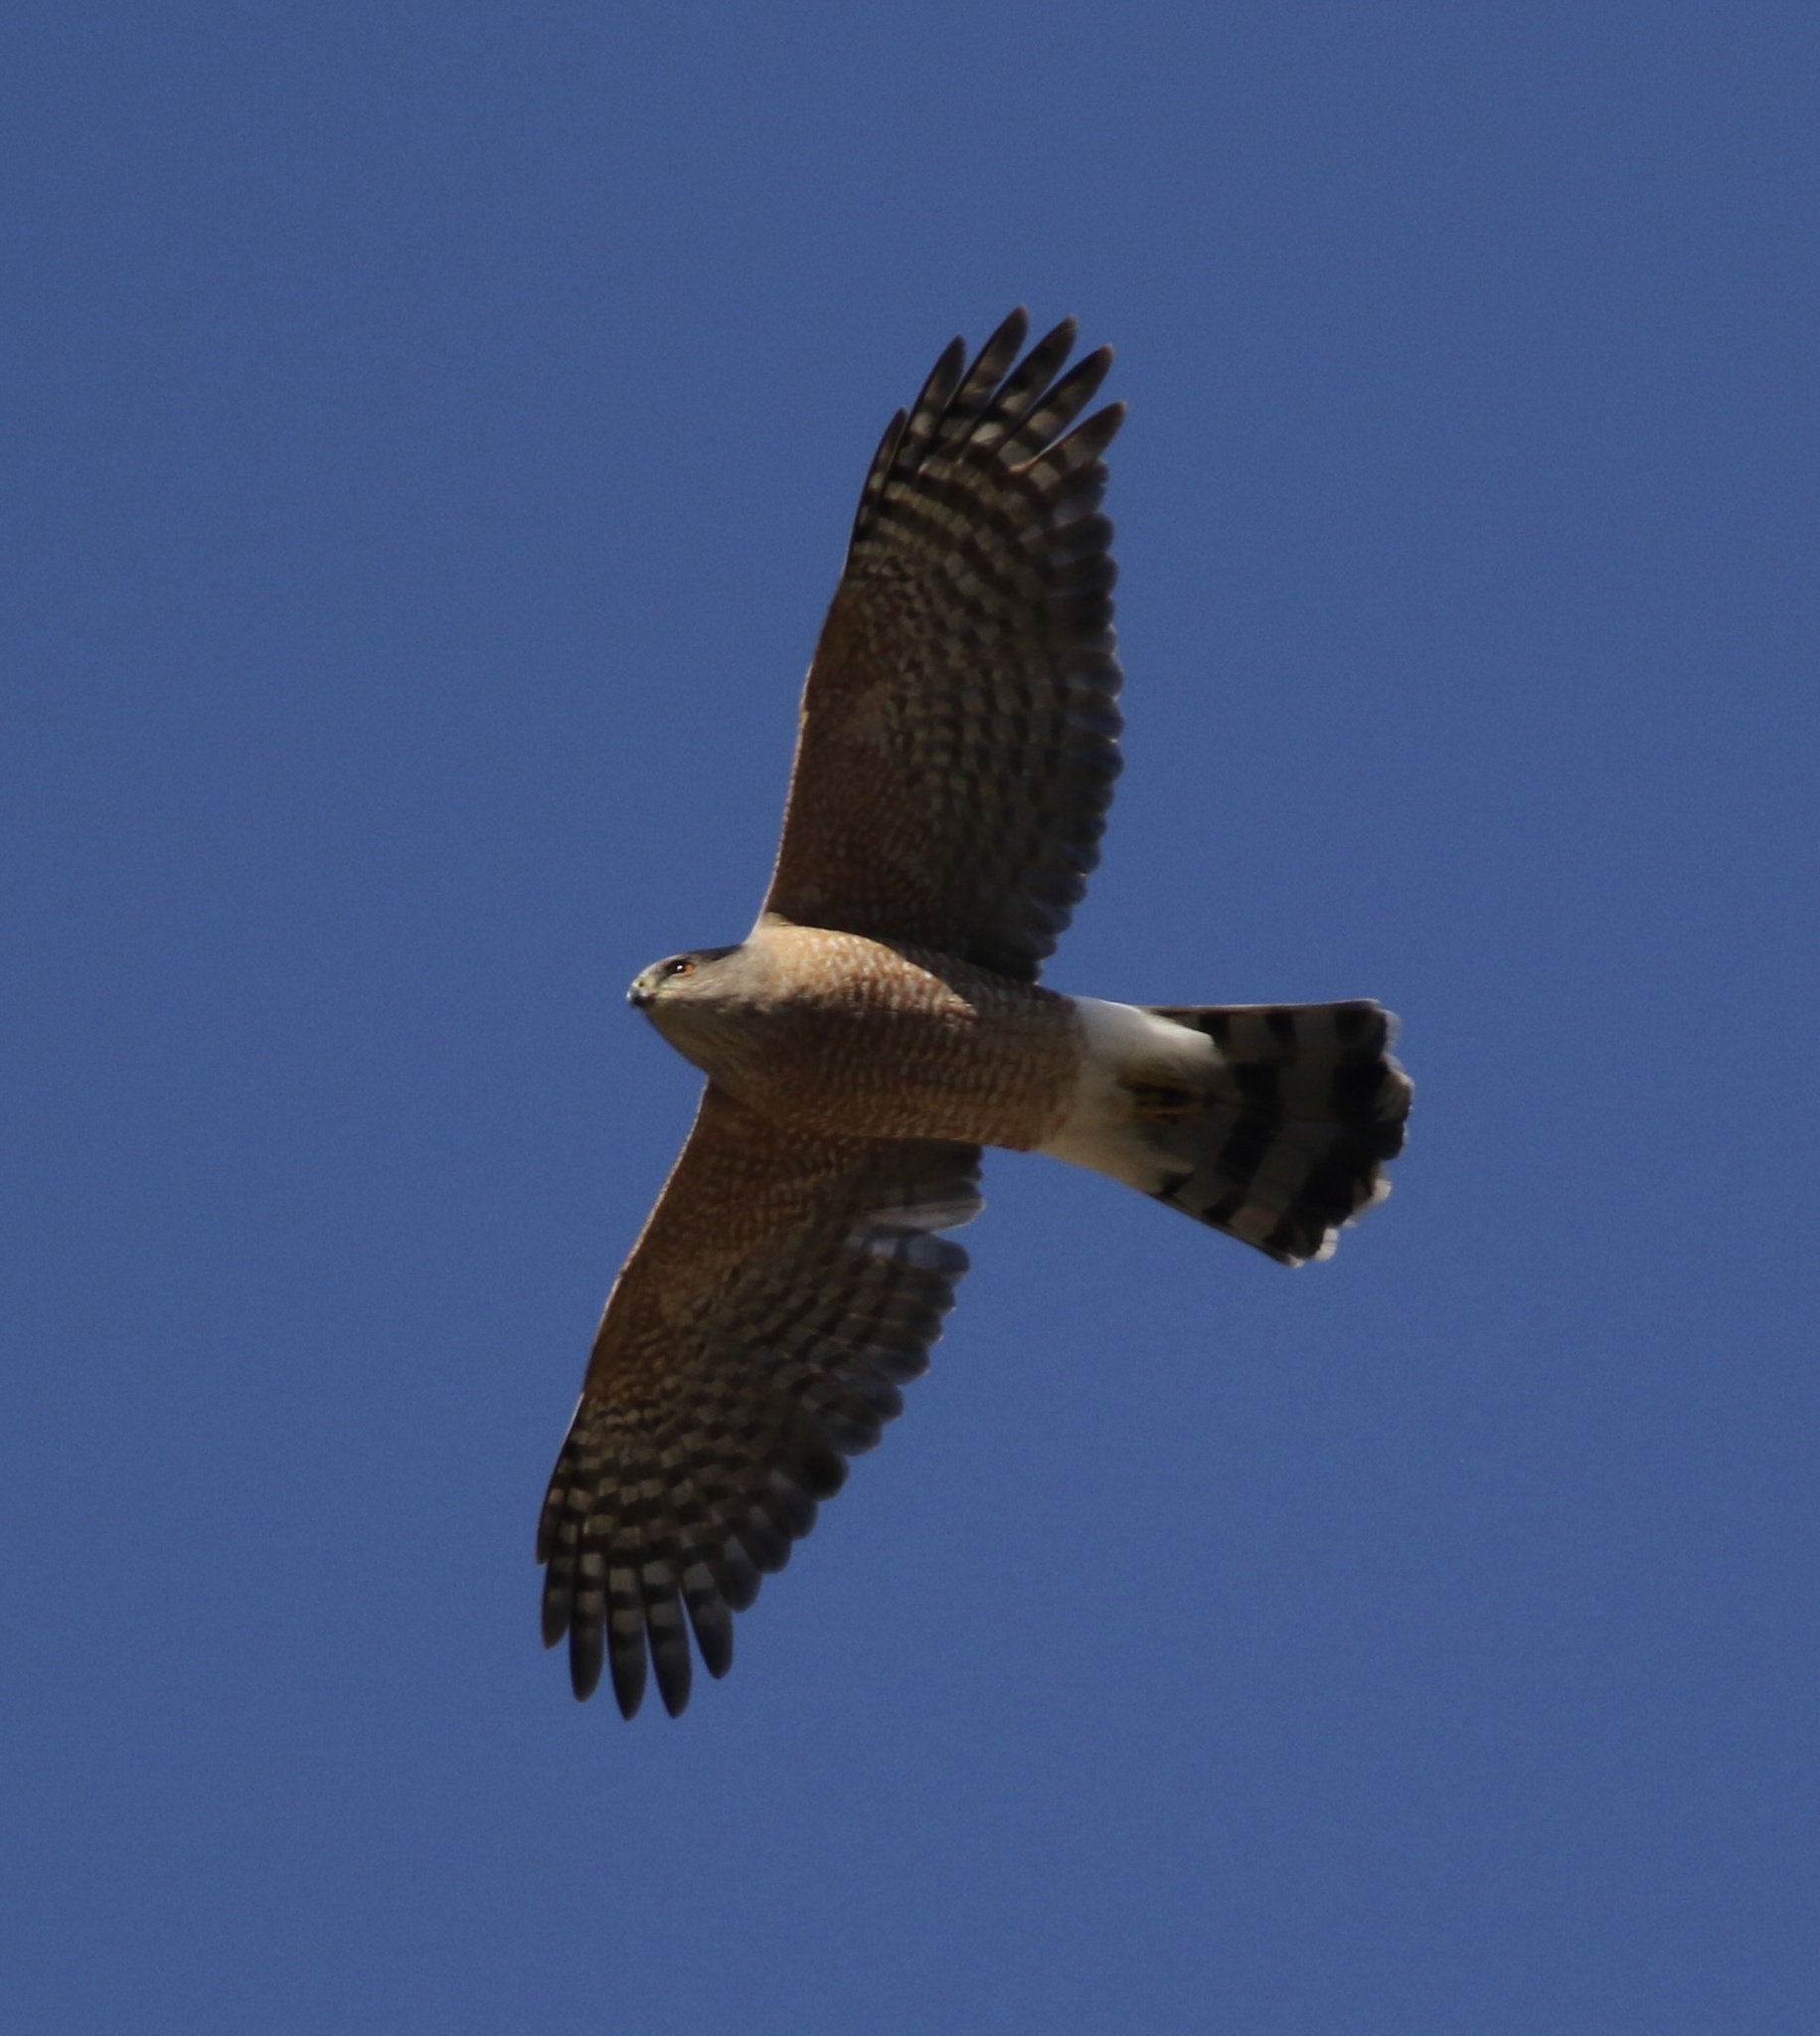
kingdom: Animalia
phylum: Chordata
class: Aves
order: Accipitriformes
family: Accipitridae
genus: Accipiter
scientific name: Accipiter cooperii
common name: Cooper's hawk
